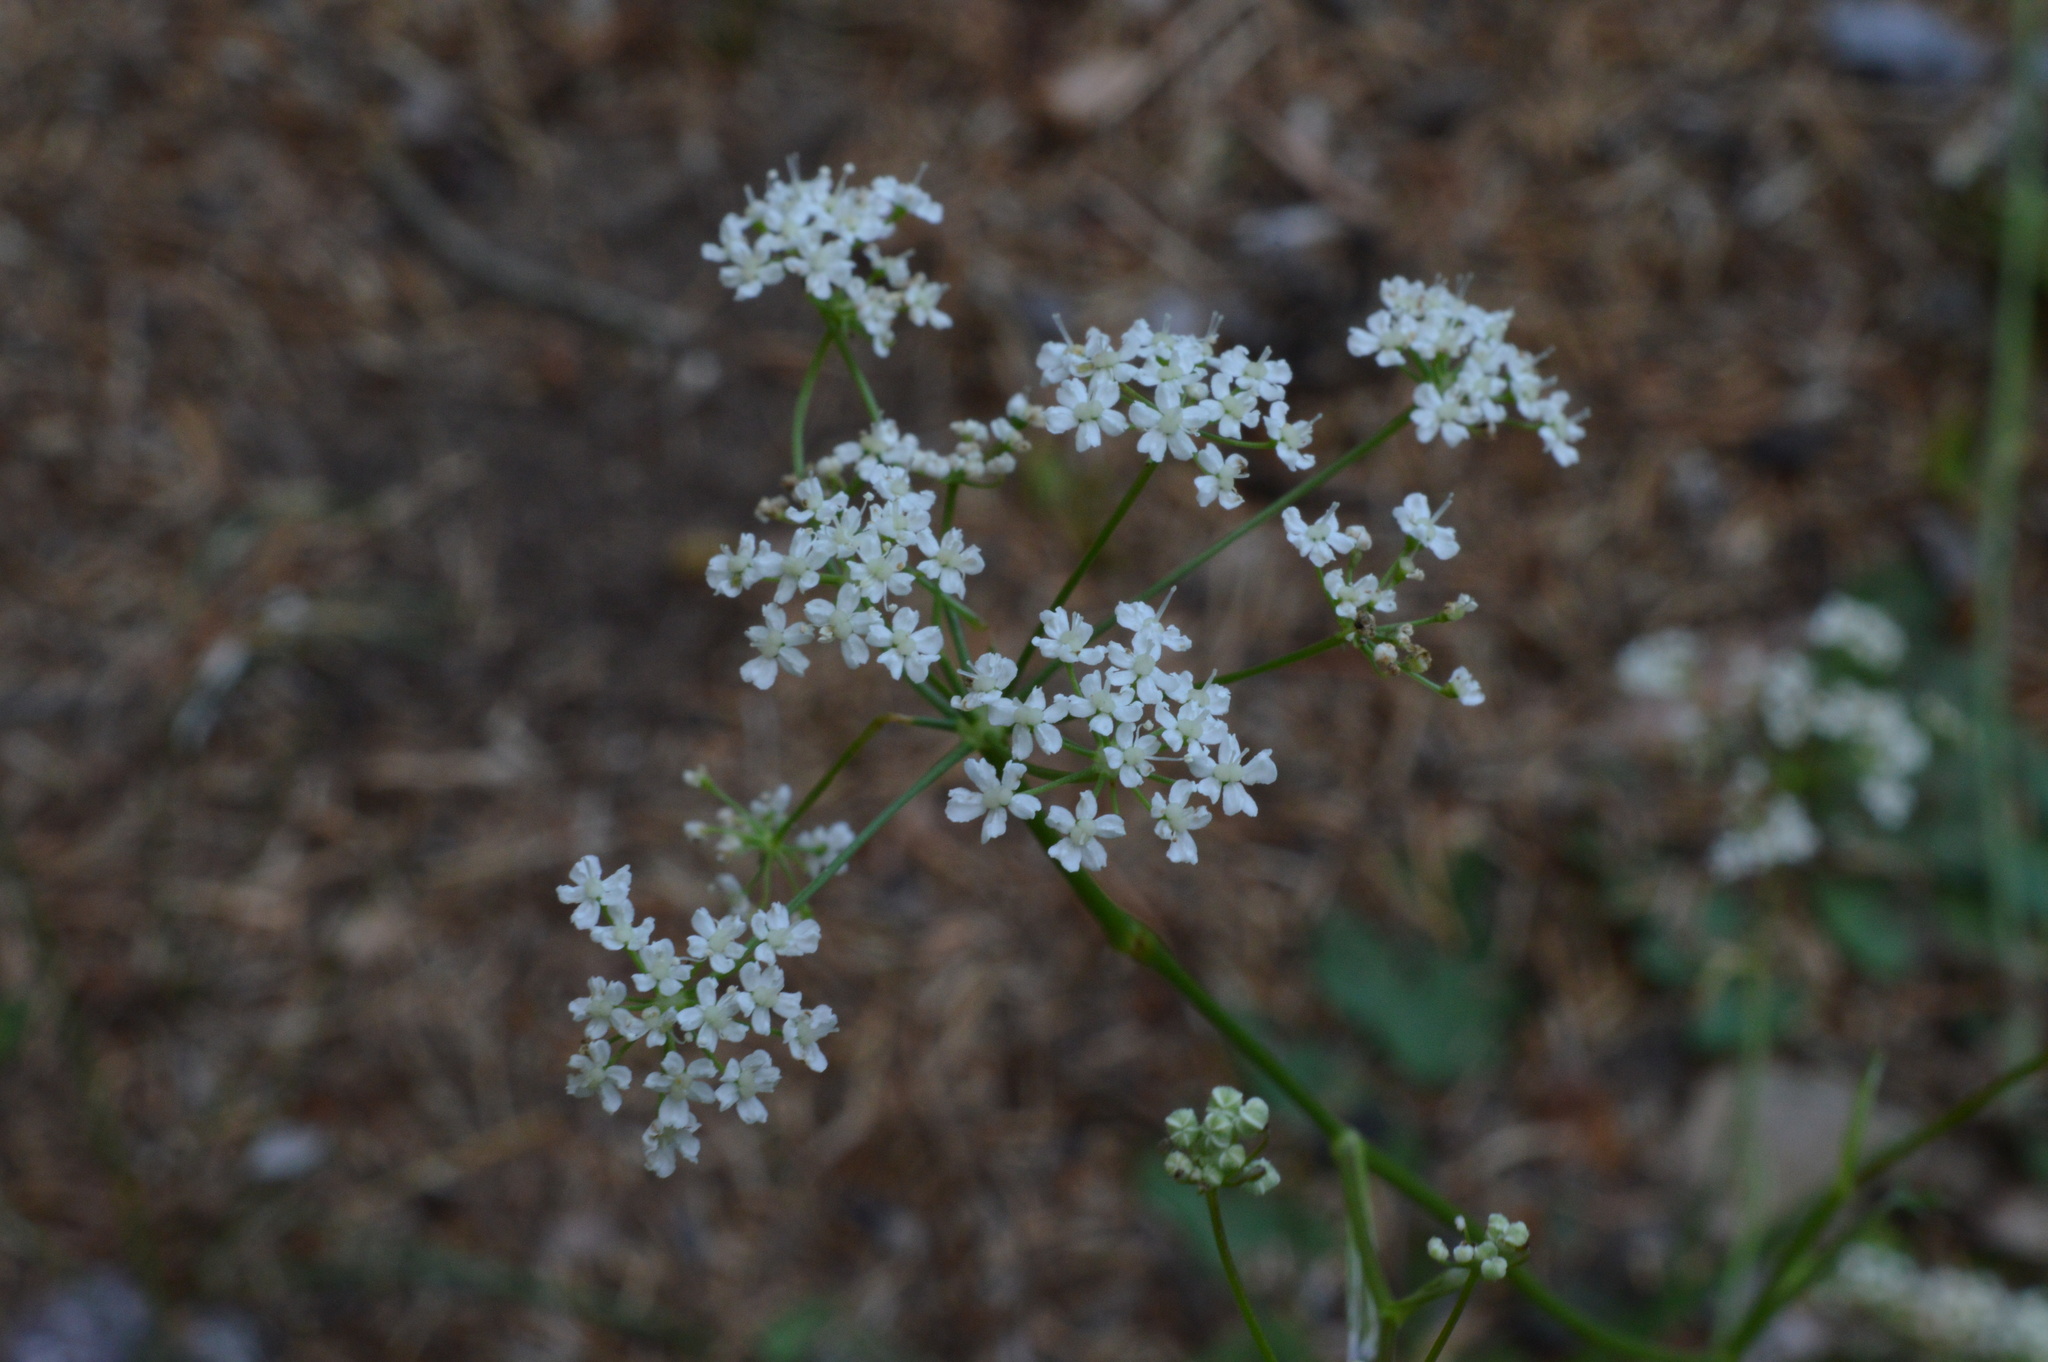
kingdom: Plantae
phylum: Tracheophyta
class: Magnoliopsida
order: Apiales
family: Apiaceae
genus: Pimpinella
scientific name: Pimpinella saxifraga
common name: Burnet-saxifrage
